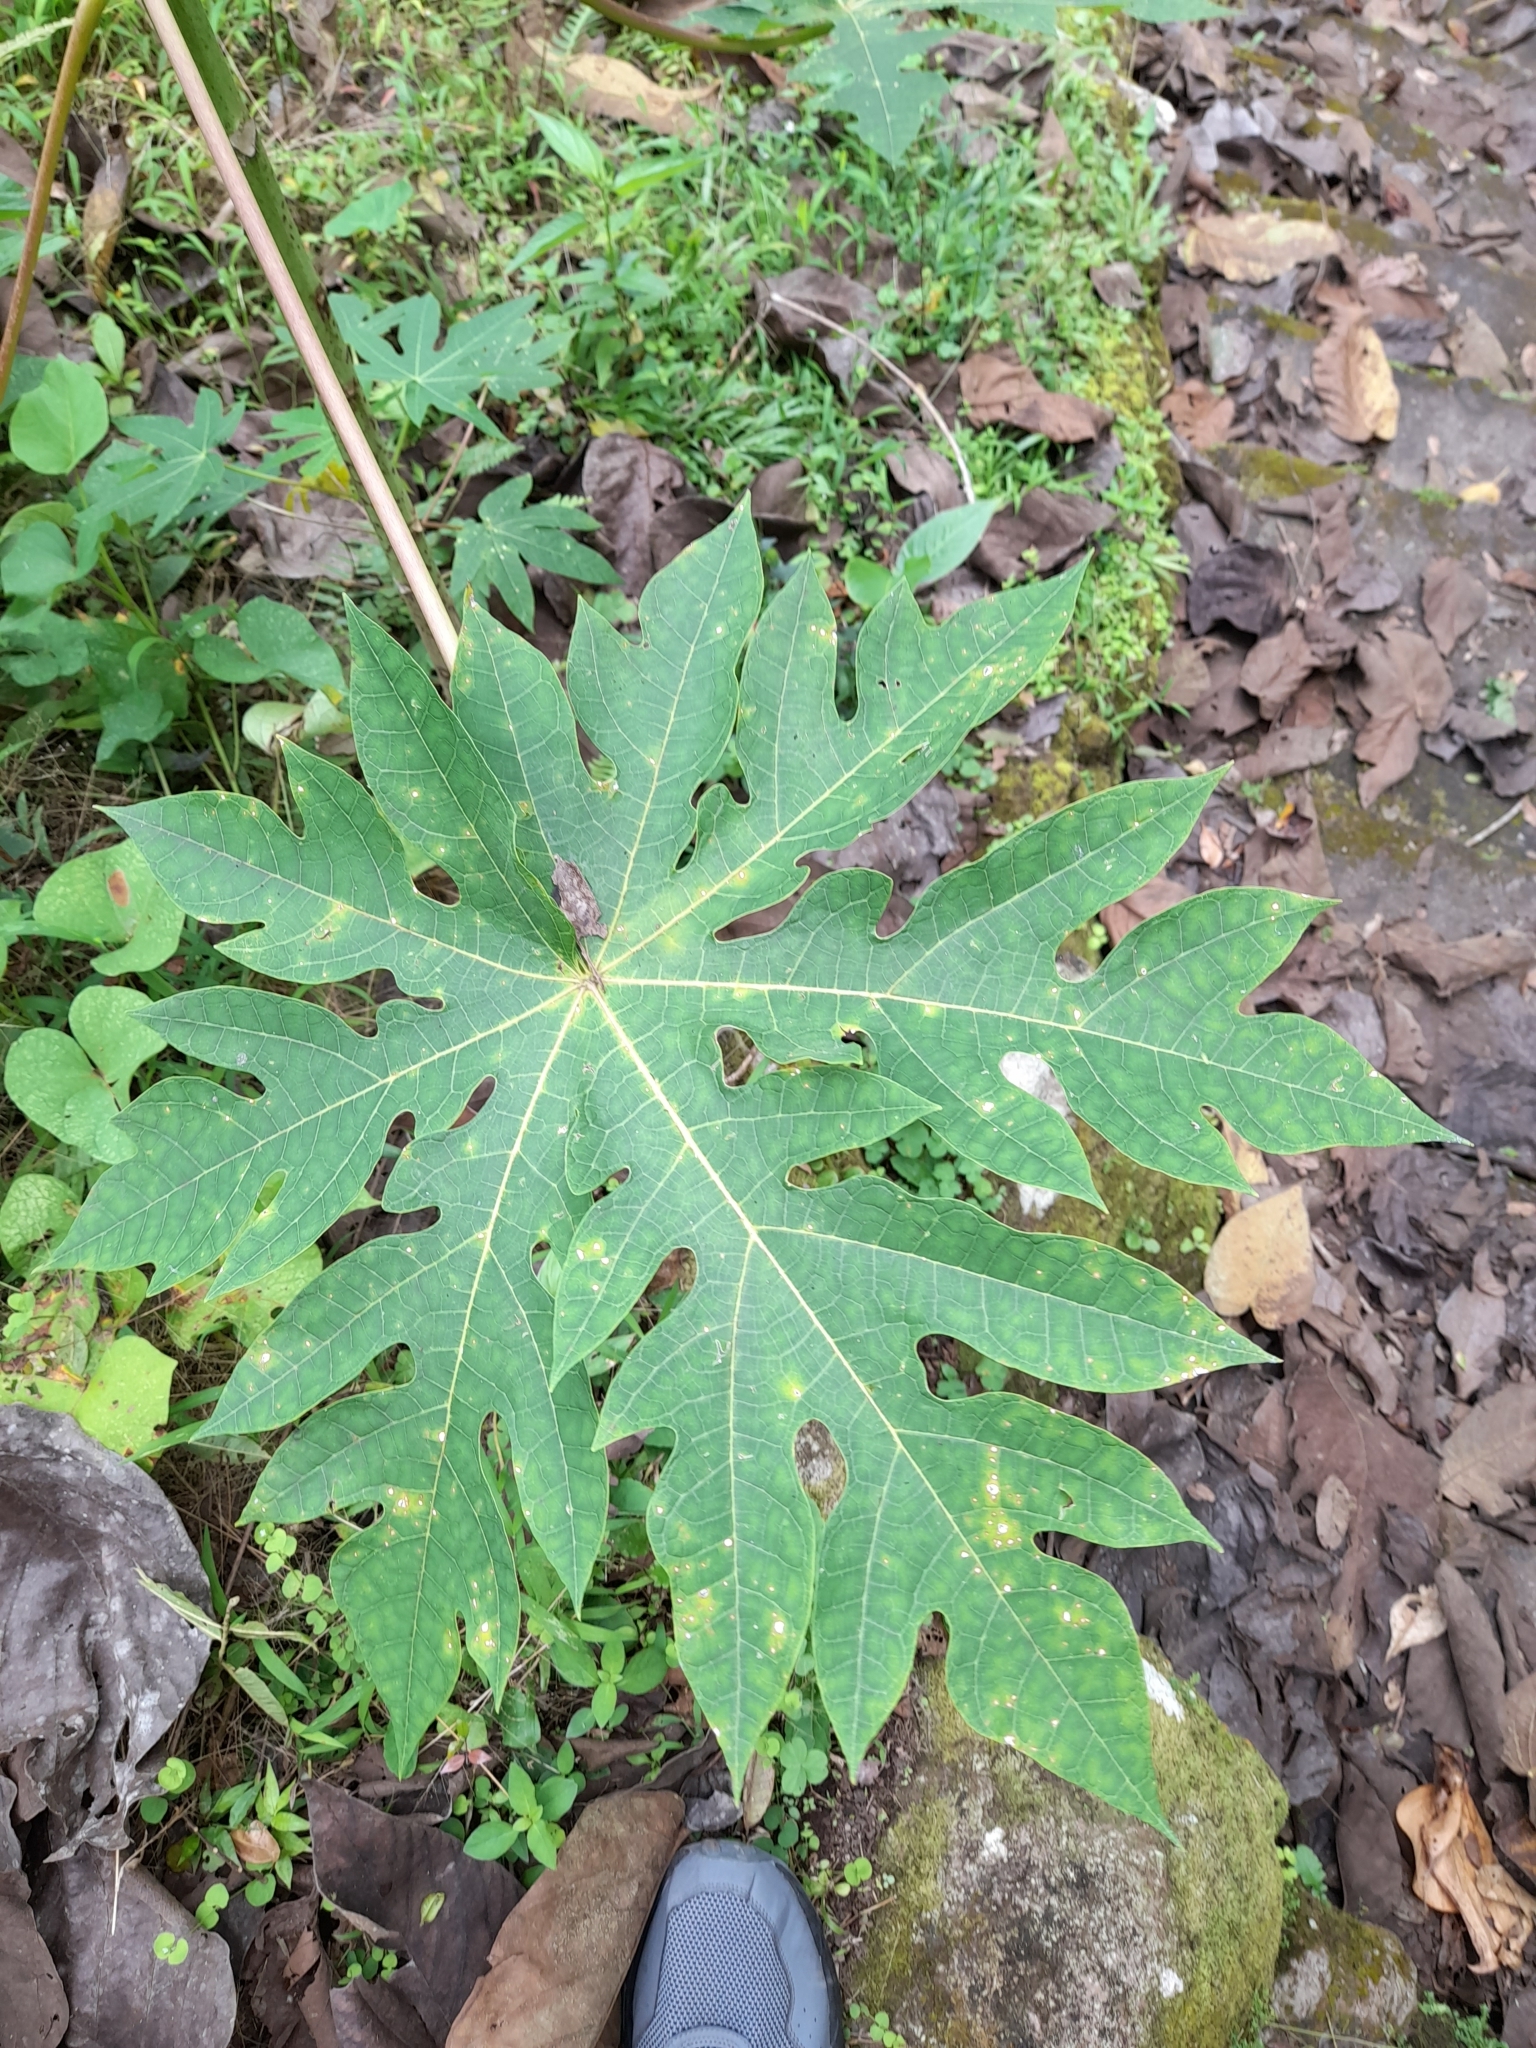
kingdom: Plantae
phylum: Tracheophyta
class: Magnoliopsida
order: Brassicales
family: Caricaceae
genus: Carica
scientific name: Carica papaya
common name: Papaya
